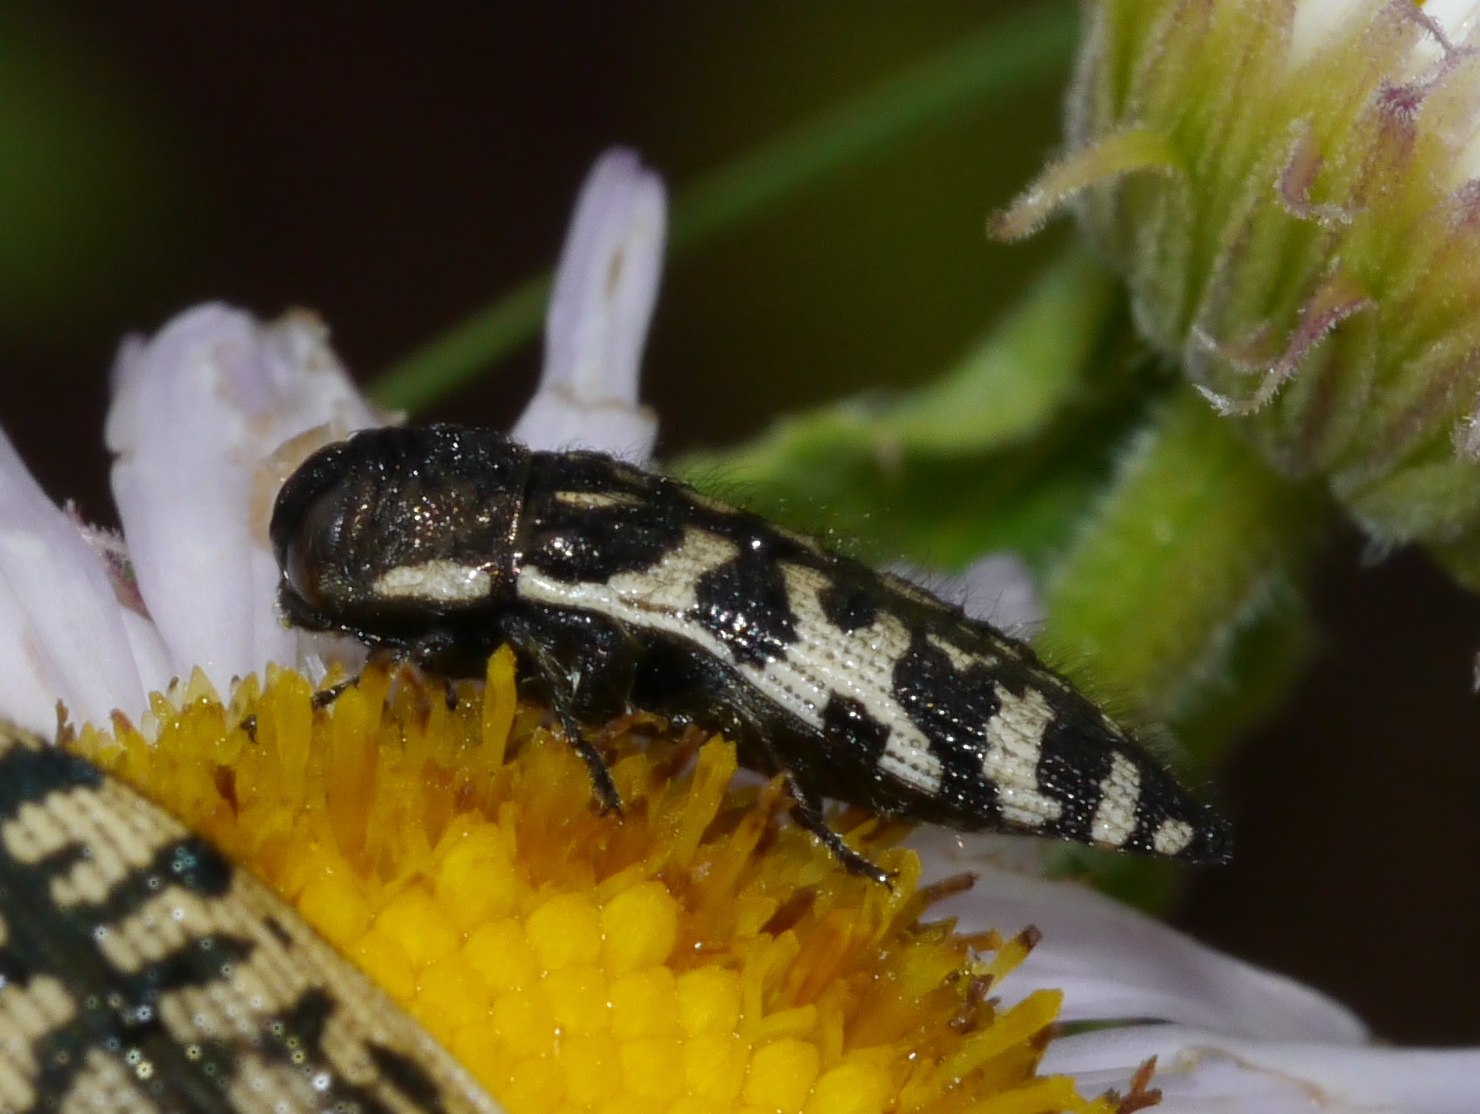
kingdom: Animalia
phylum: Arthropoda
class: Insecta
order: Coleoptera
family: Buprestidae
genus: Acmaeodera
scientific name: Acmaeodera decipiens
